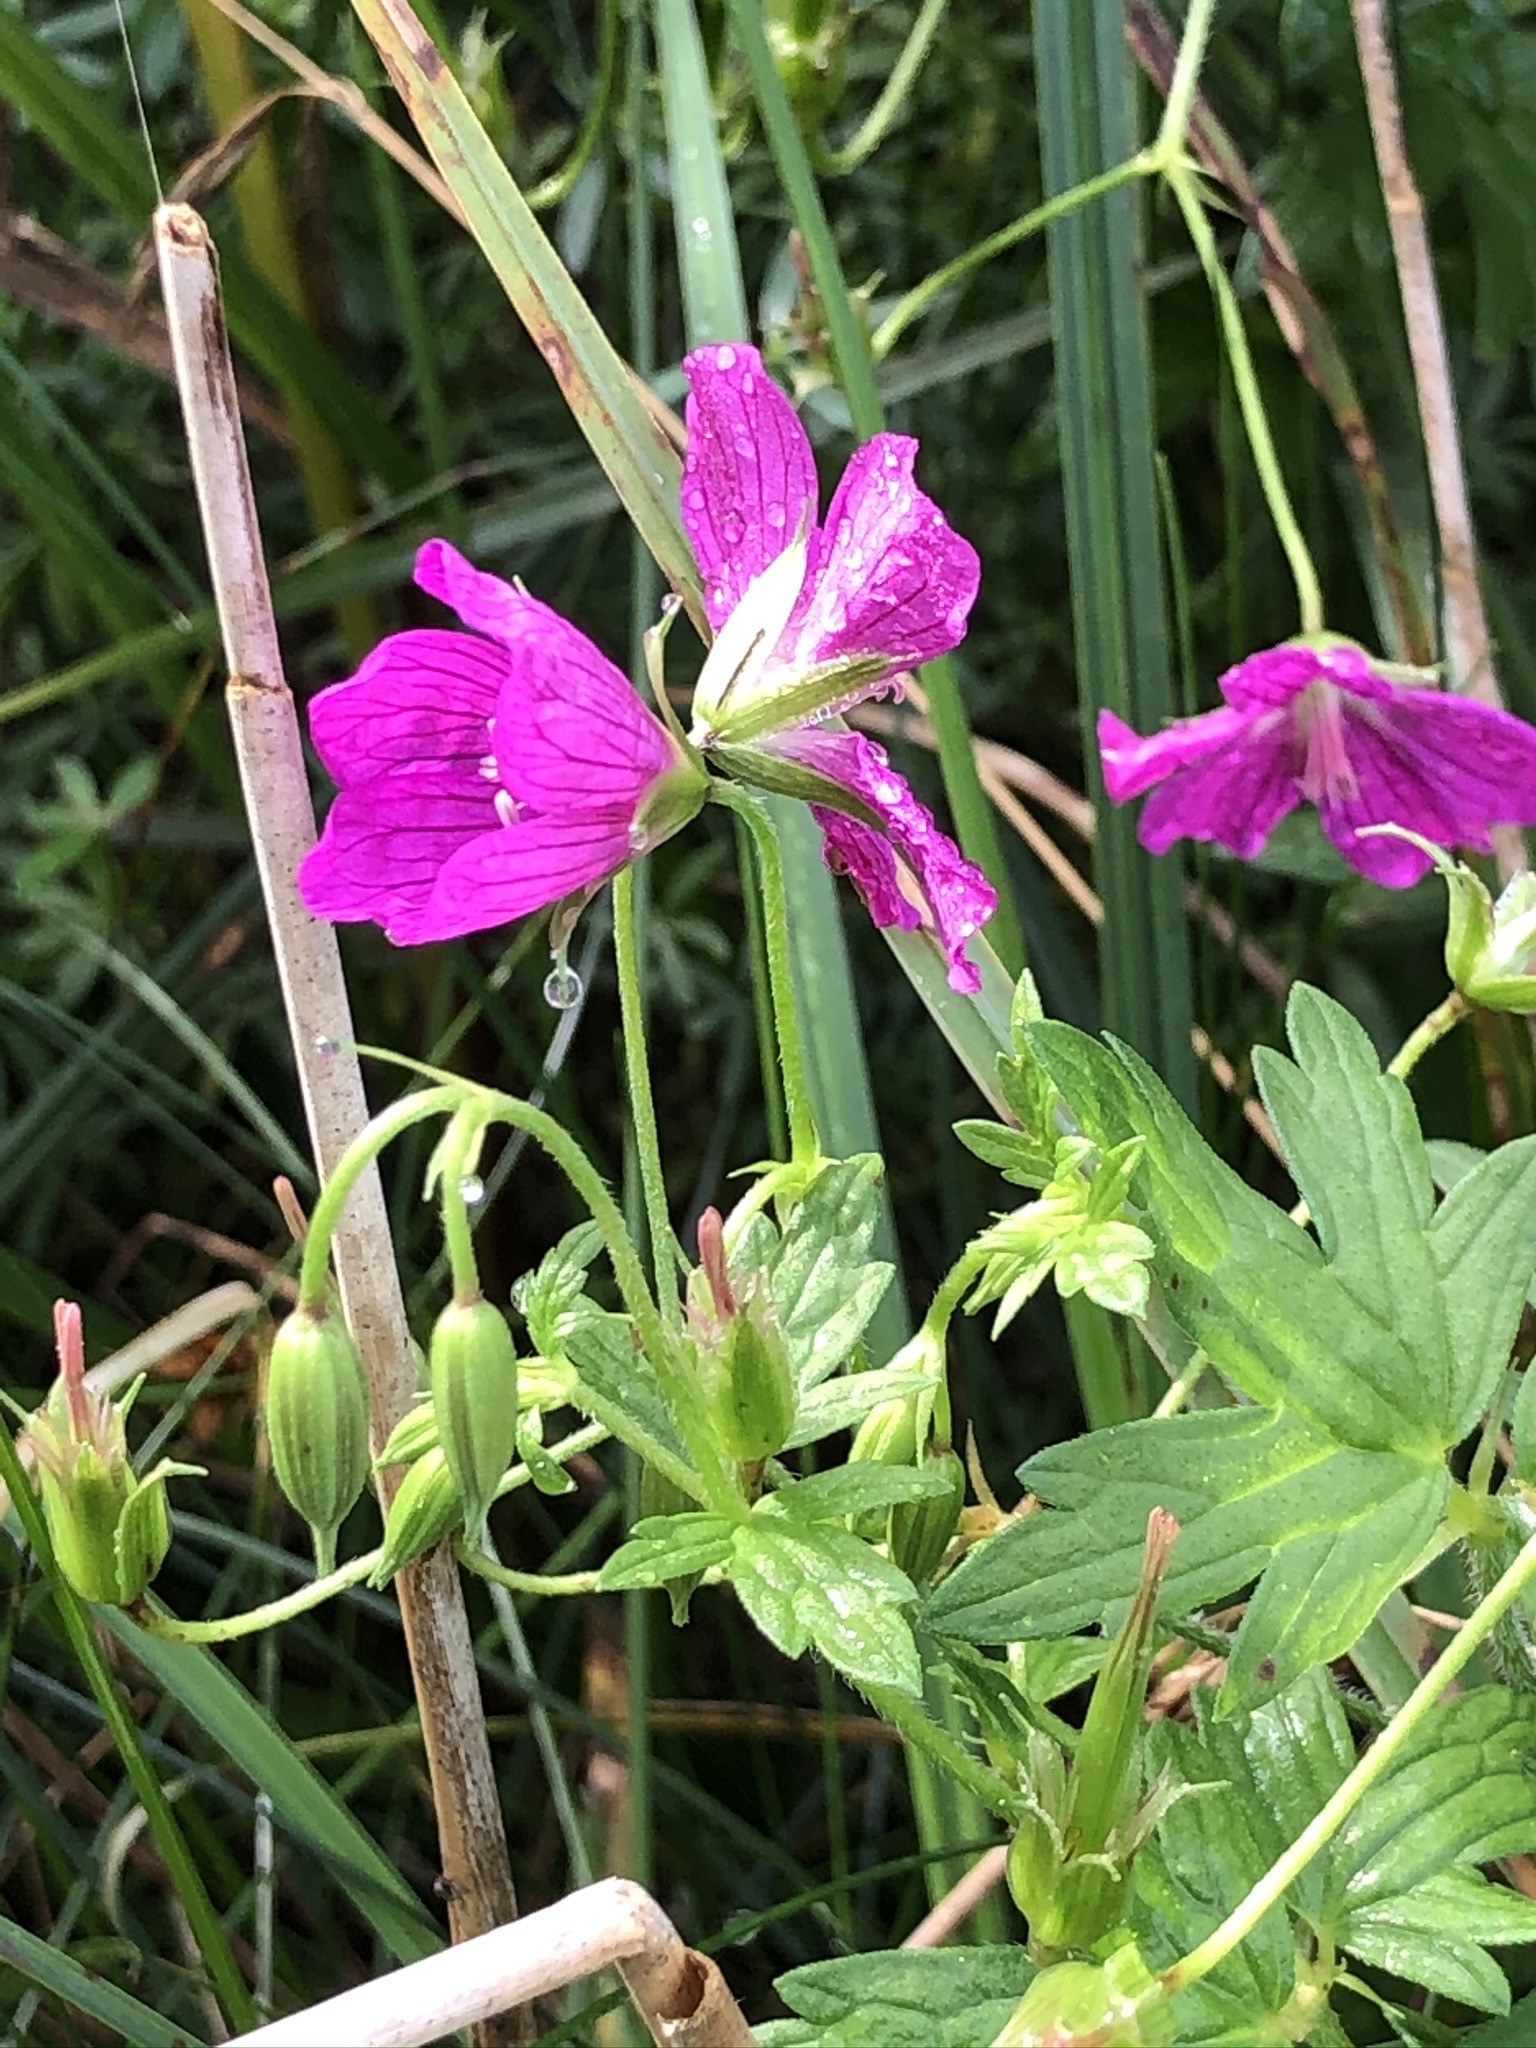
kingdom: Plantae
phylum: Tracheophyta
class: Magnoliopsida
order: Geraniales
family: Geraniaceae
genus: Geranium
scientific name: Geranium palustre
